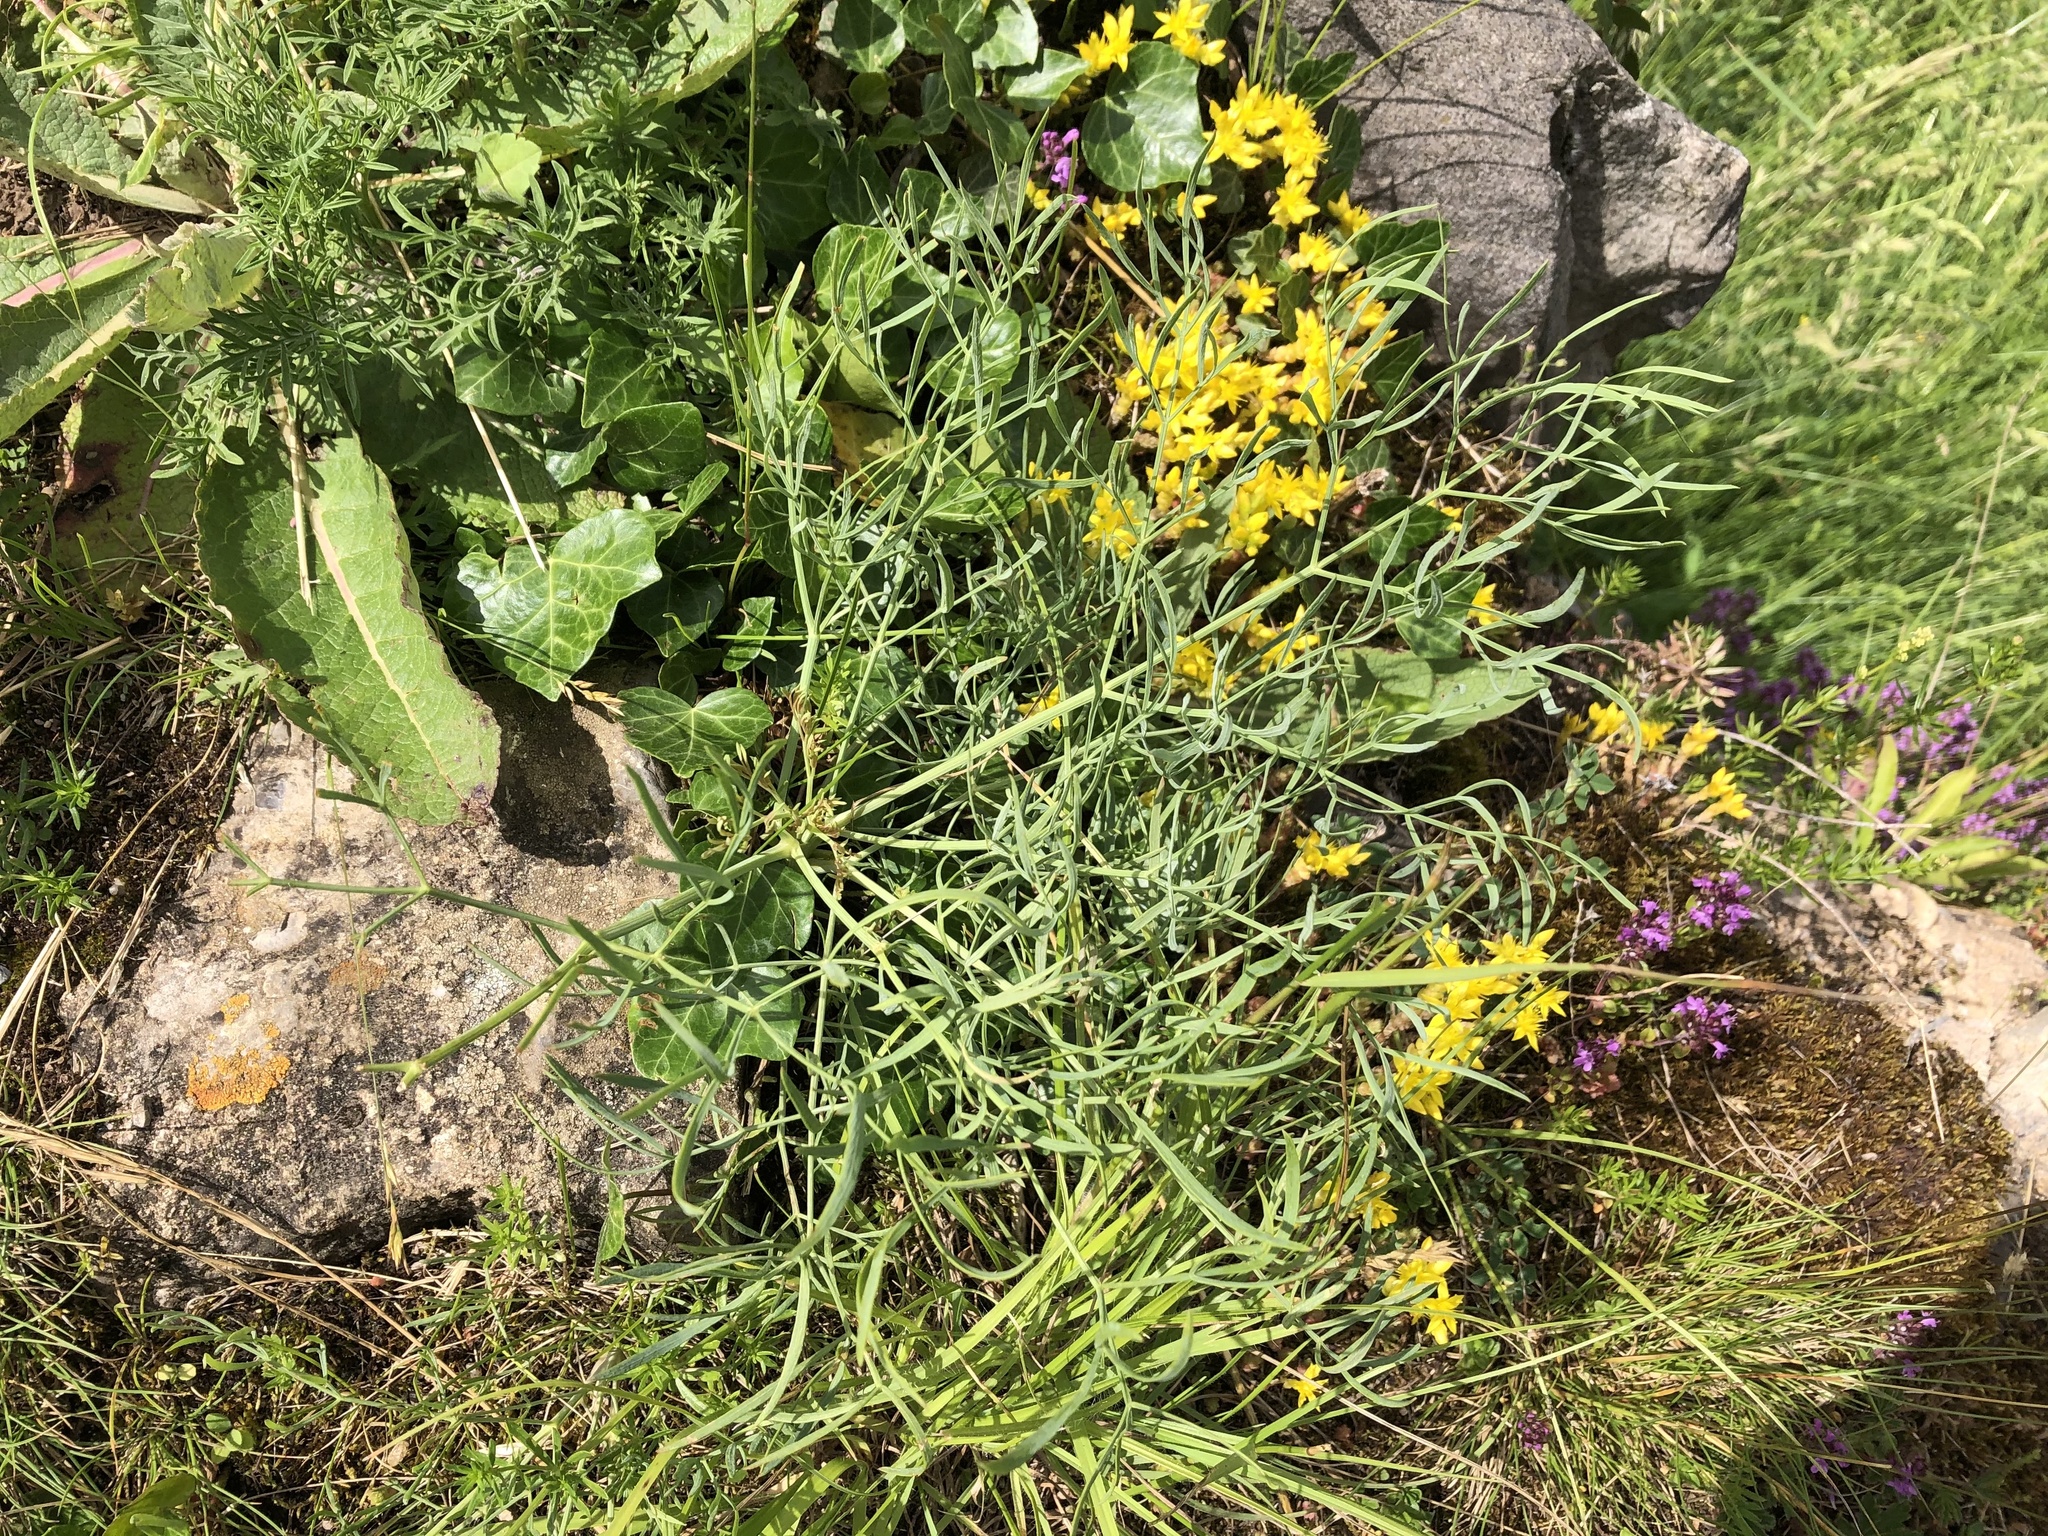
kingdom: Plantae
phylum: Tracheophyta
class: Magnoliopsida
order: Apiales
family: Apiaceae
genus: Seseli
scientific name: Seseli osseum
